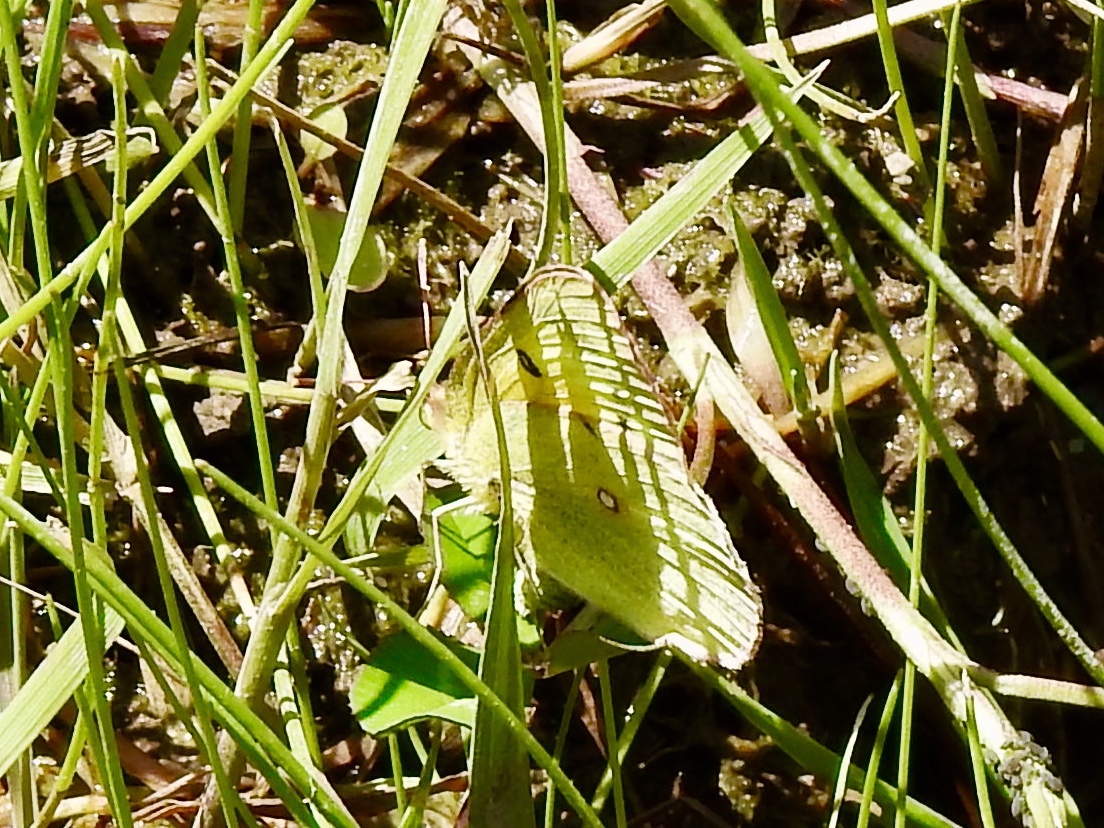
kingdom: Animalia
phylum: Arthropoda
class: Insecta
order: Lepidoptera
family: Pieridae
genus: Colias
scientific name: Colias eurytheme
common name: Alfalfa butterfly
